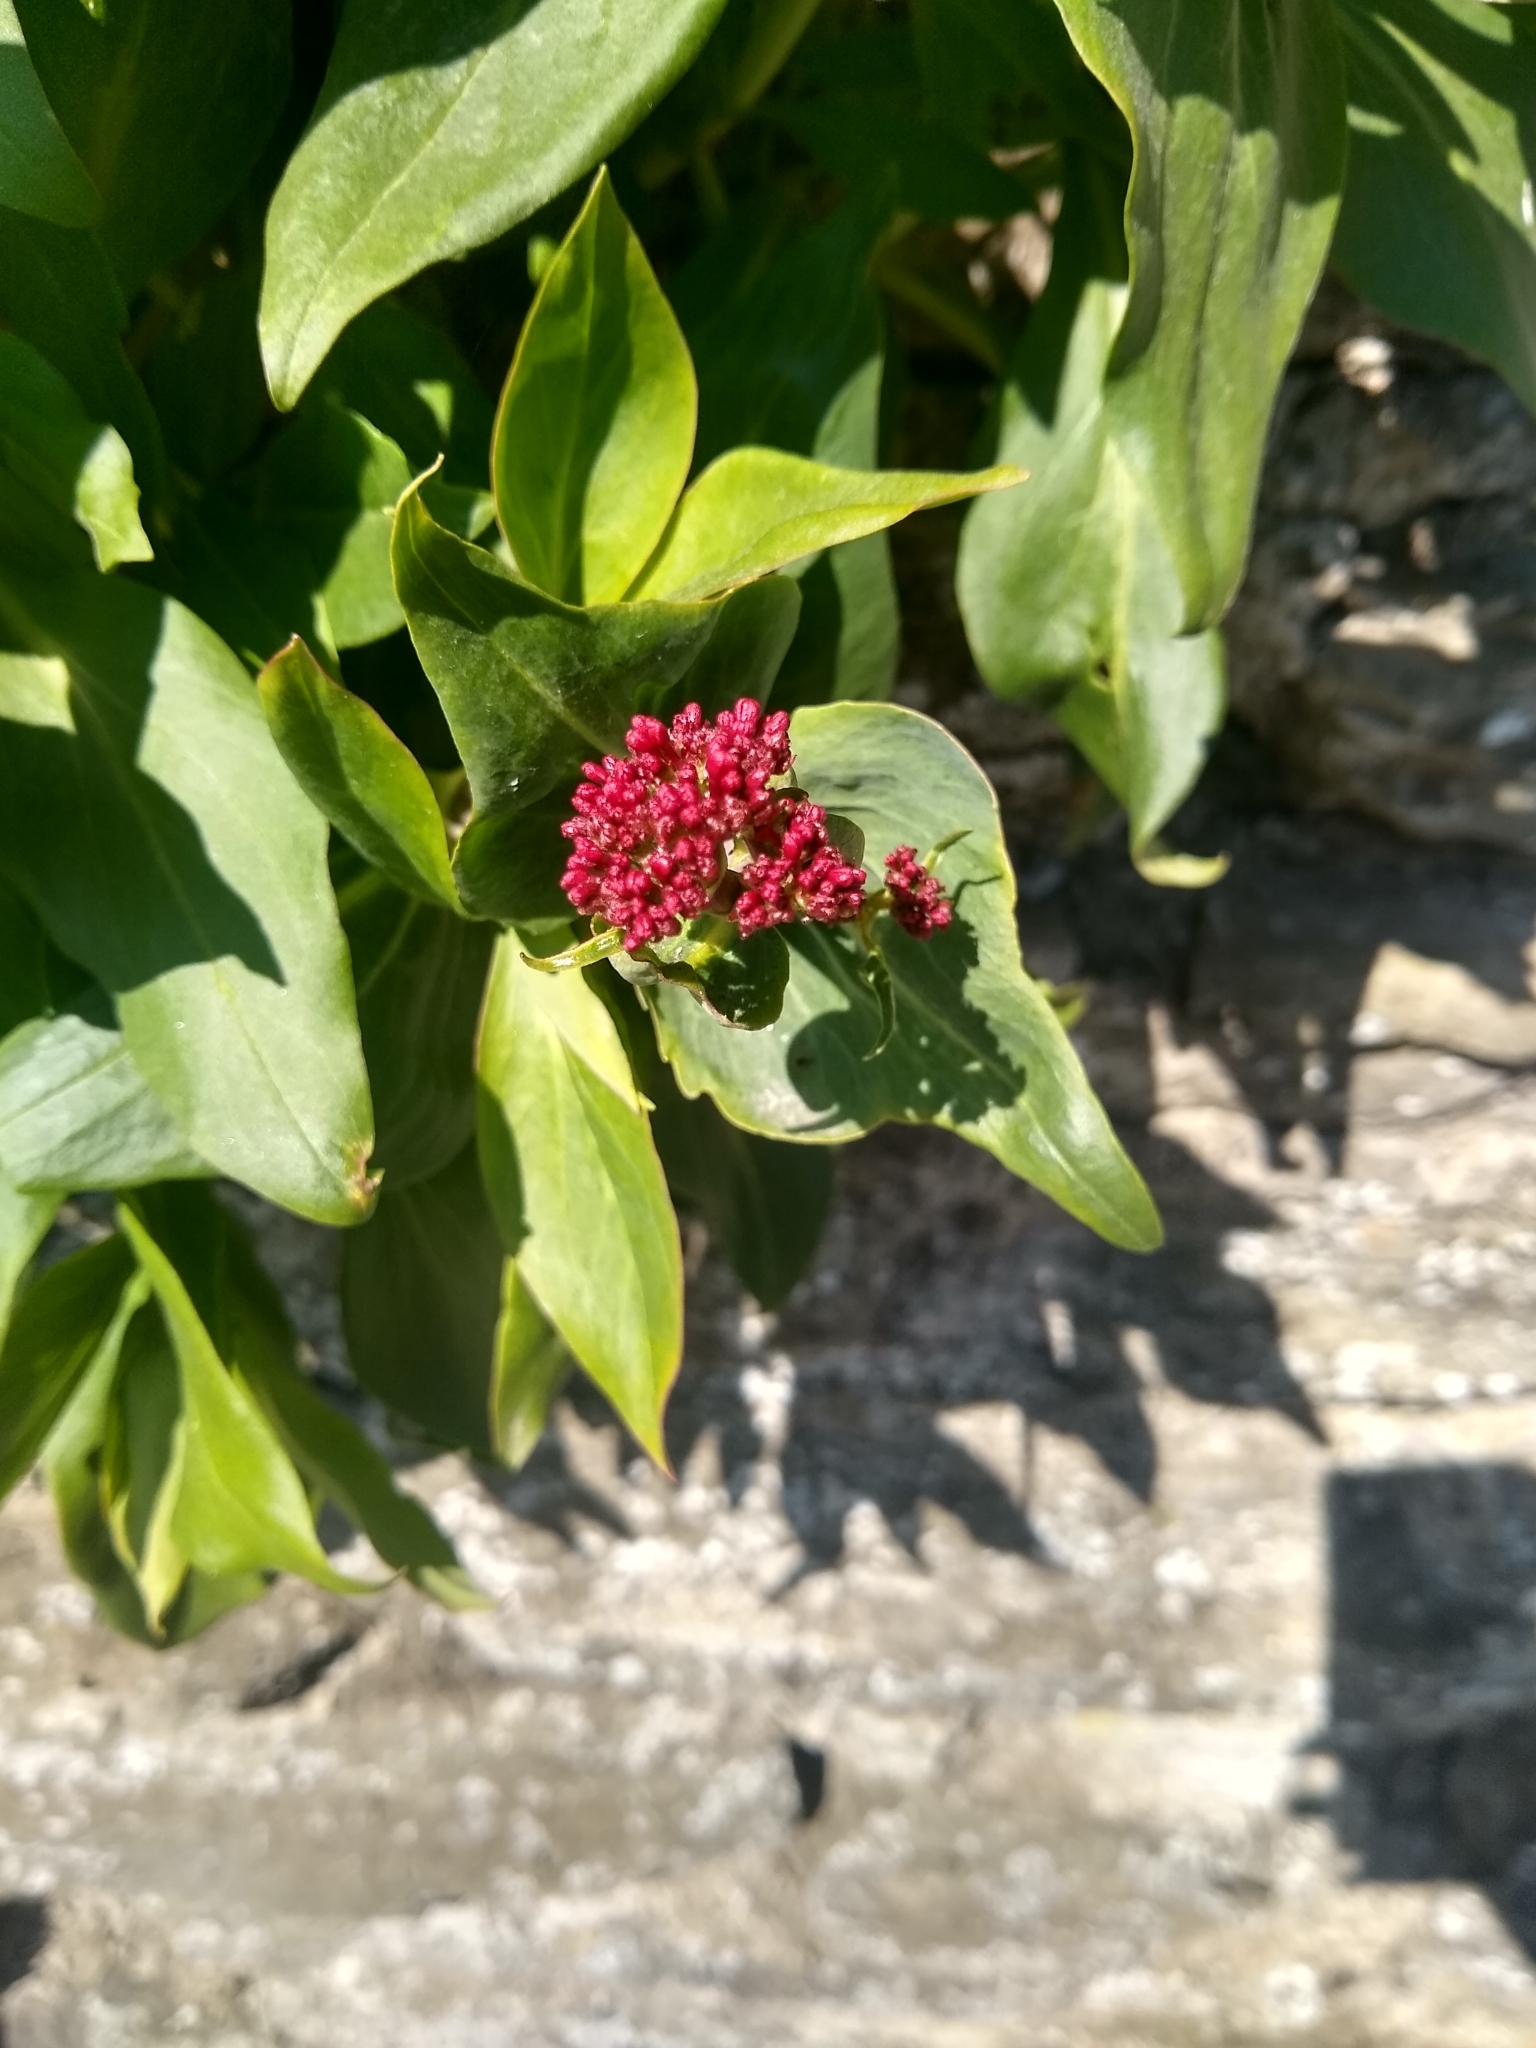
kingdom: Plantae
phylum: Tracheophyta
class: Magnoliopsida
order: Dipsacales
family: Caprifoliaceae
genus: Centranthus
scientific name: Centranthus ruber
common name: Red valerian
